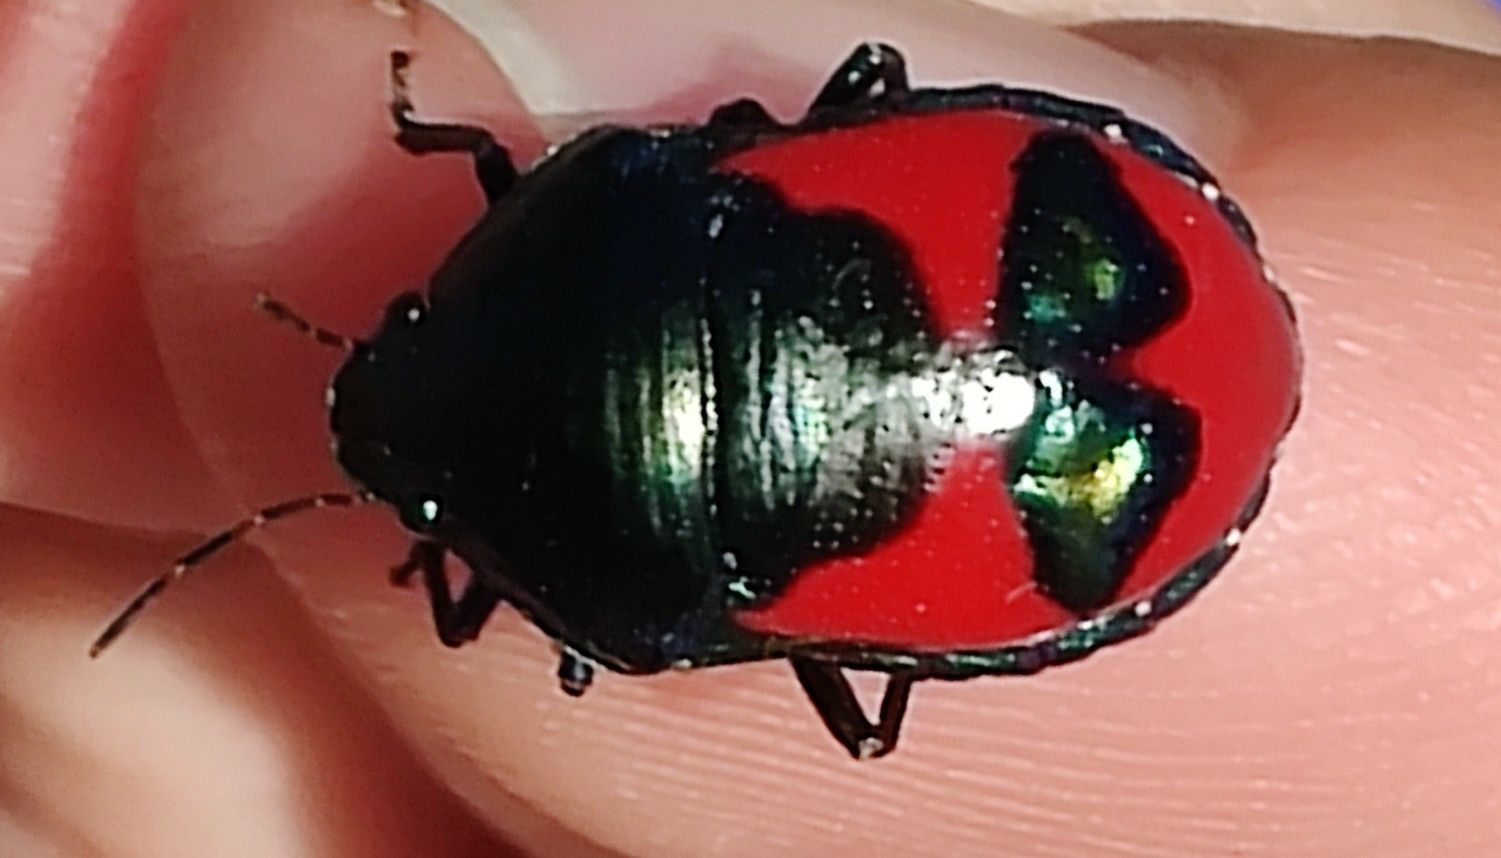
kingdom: Animalia
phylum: Arthropoda
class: Insecta
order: Hemiptera
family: Scutelleridae
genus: Choerocoris
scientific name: Choerocoris paganus
